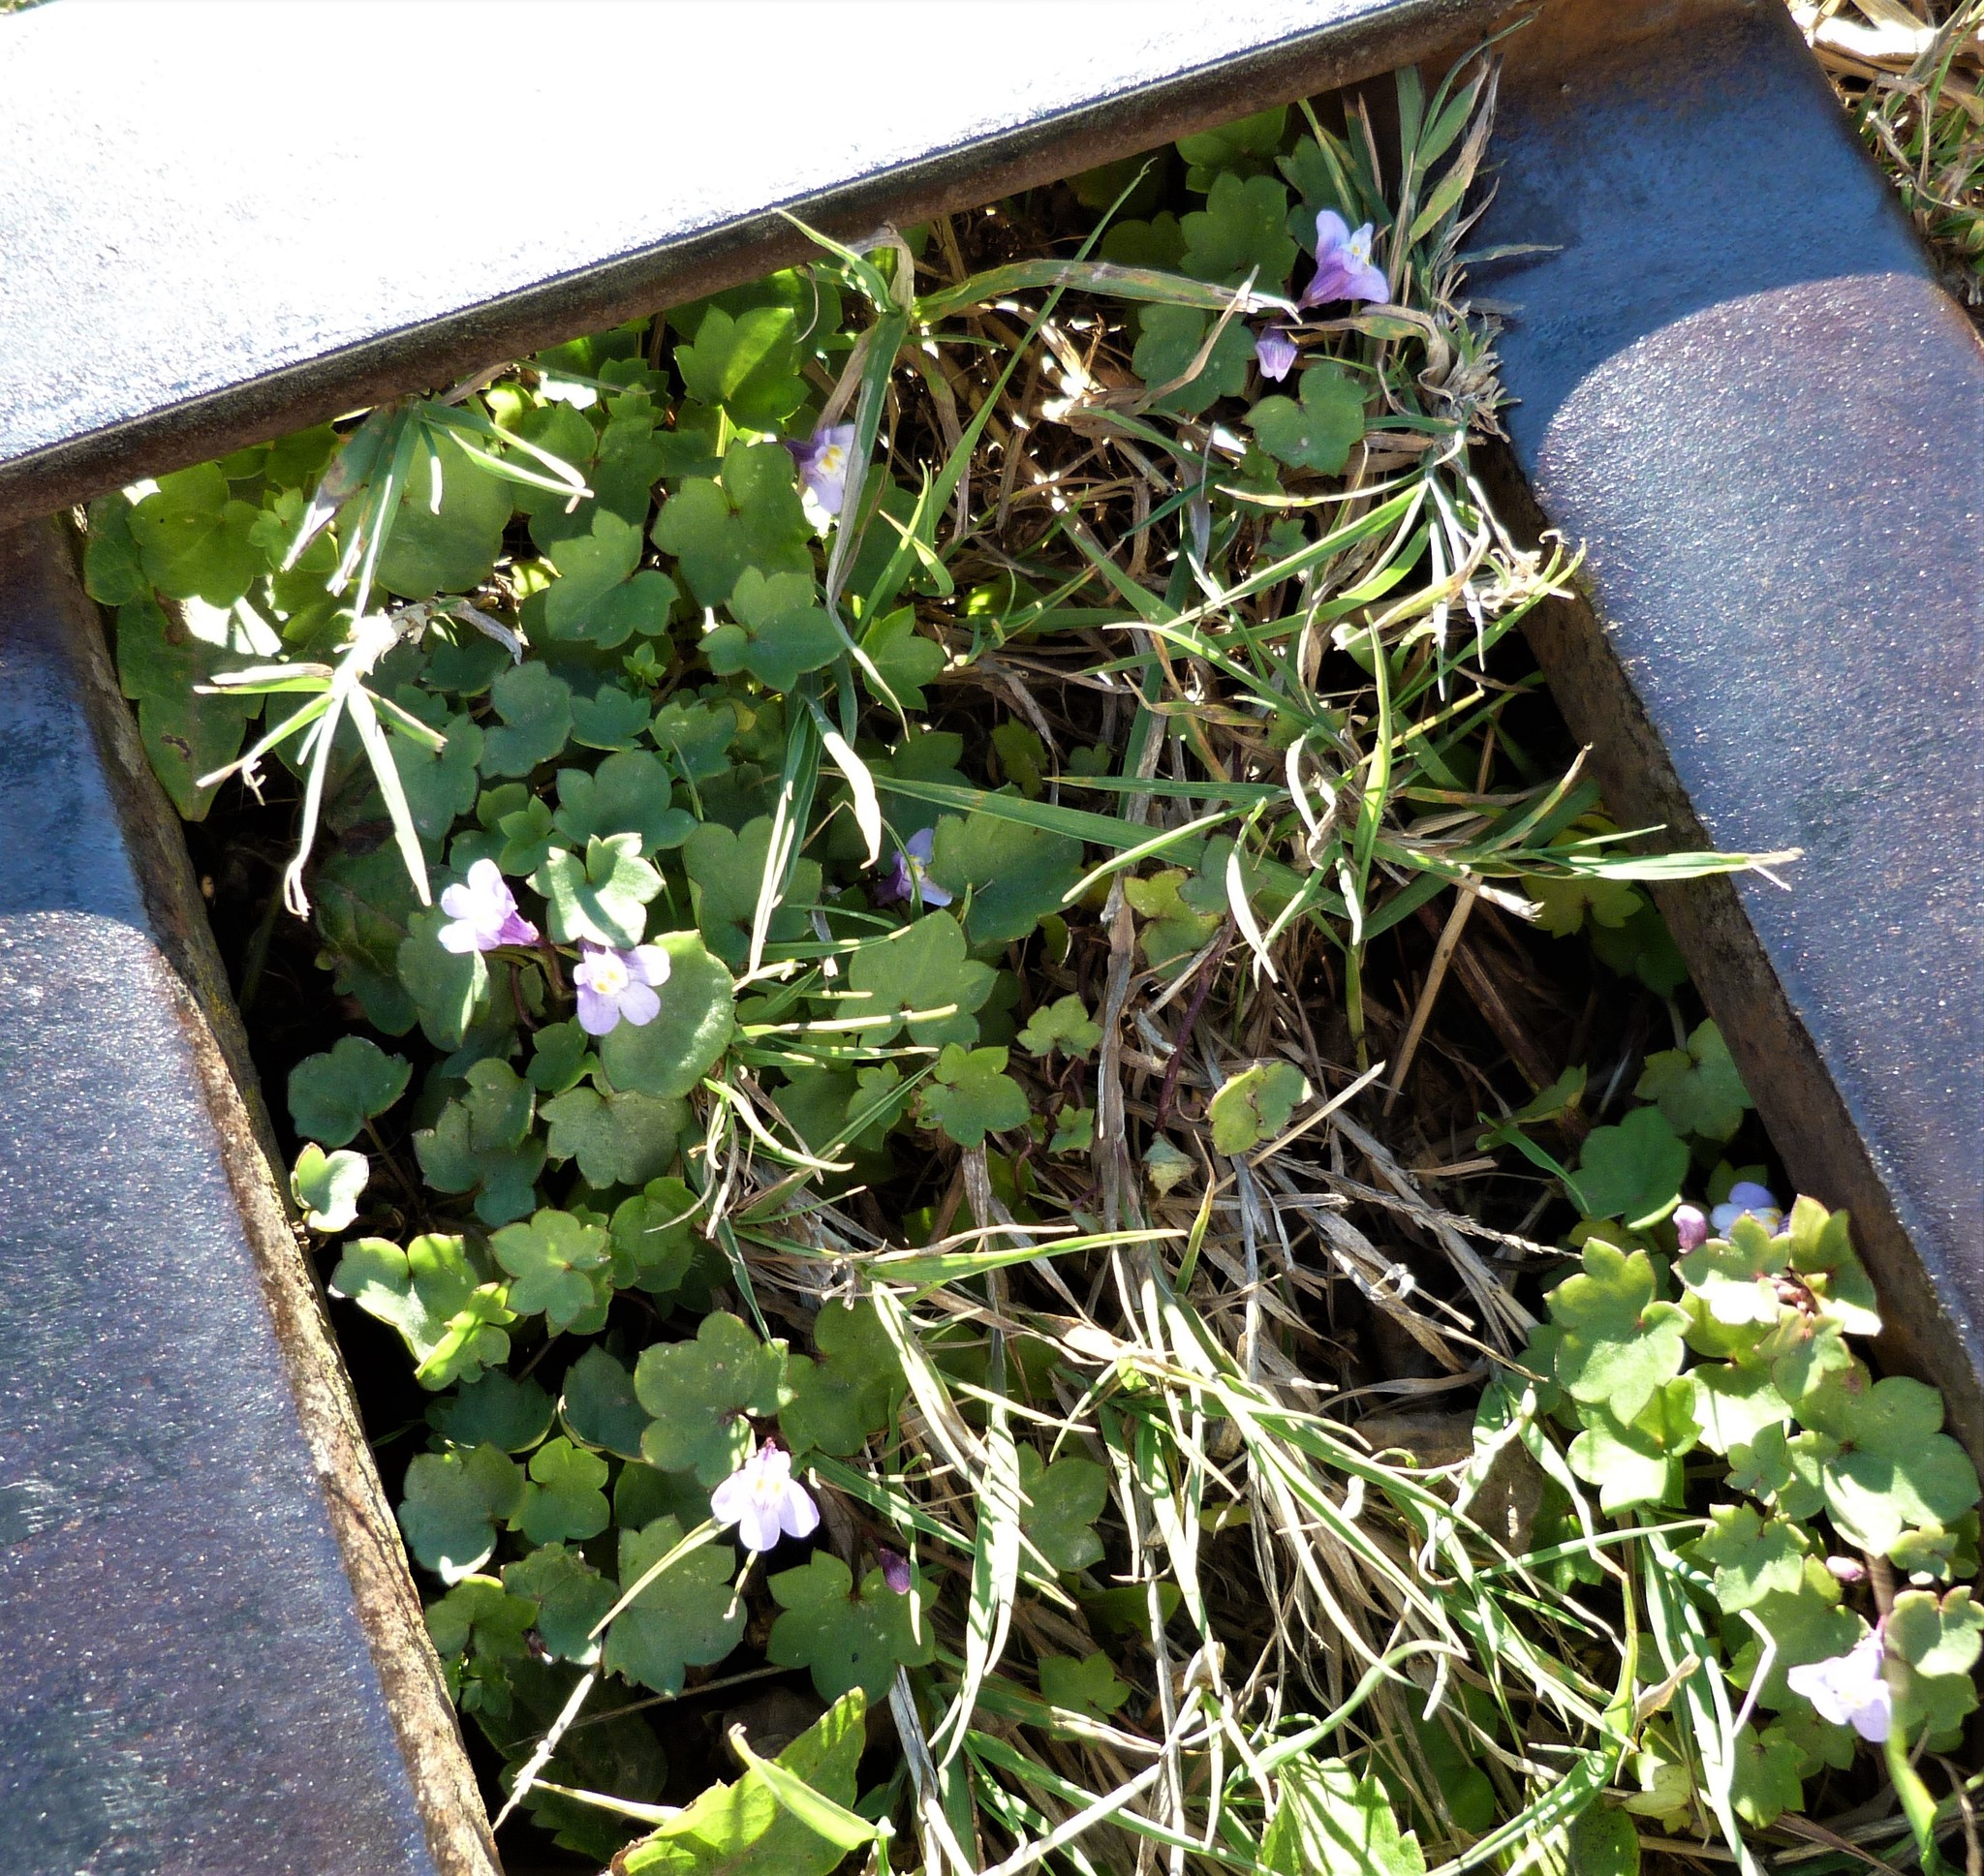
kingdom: Plantae
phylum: Tracheophyta
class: Magnoliopsida
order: Lamiales
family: Plantaginaceae
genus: Cymbalaria
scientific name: Cymbalaria muralis
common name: Ivy-leaved toadflax
